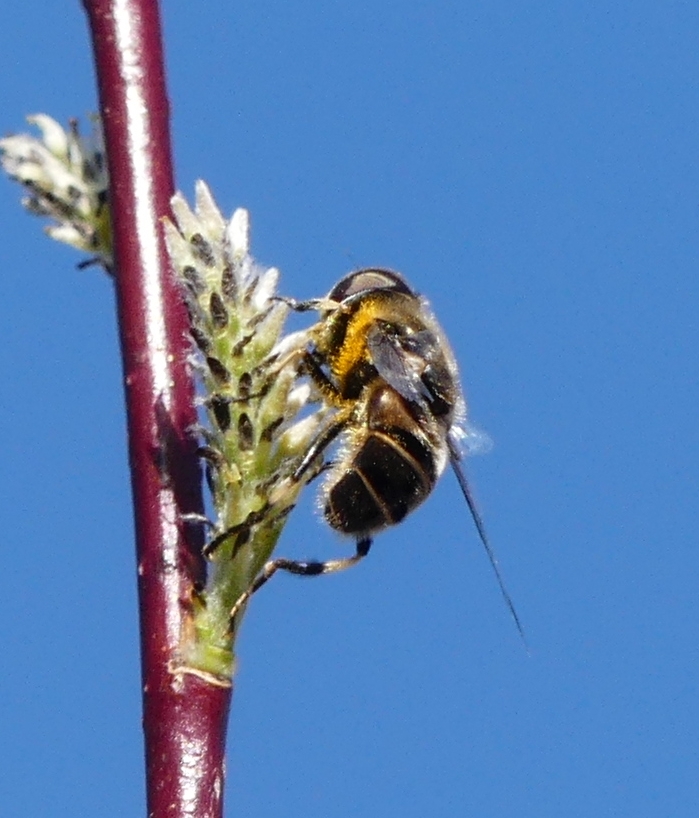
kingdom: Animalia
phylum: Arthropoda
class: Insecta
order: Diptera
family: Syrphidae
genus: Eristalis
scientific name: Eristalis dimidiata
